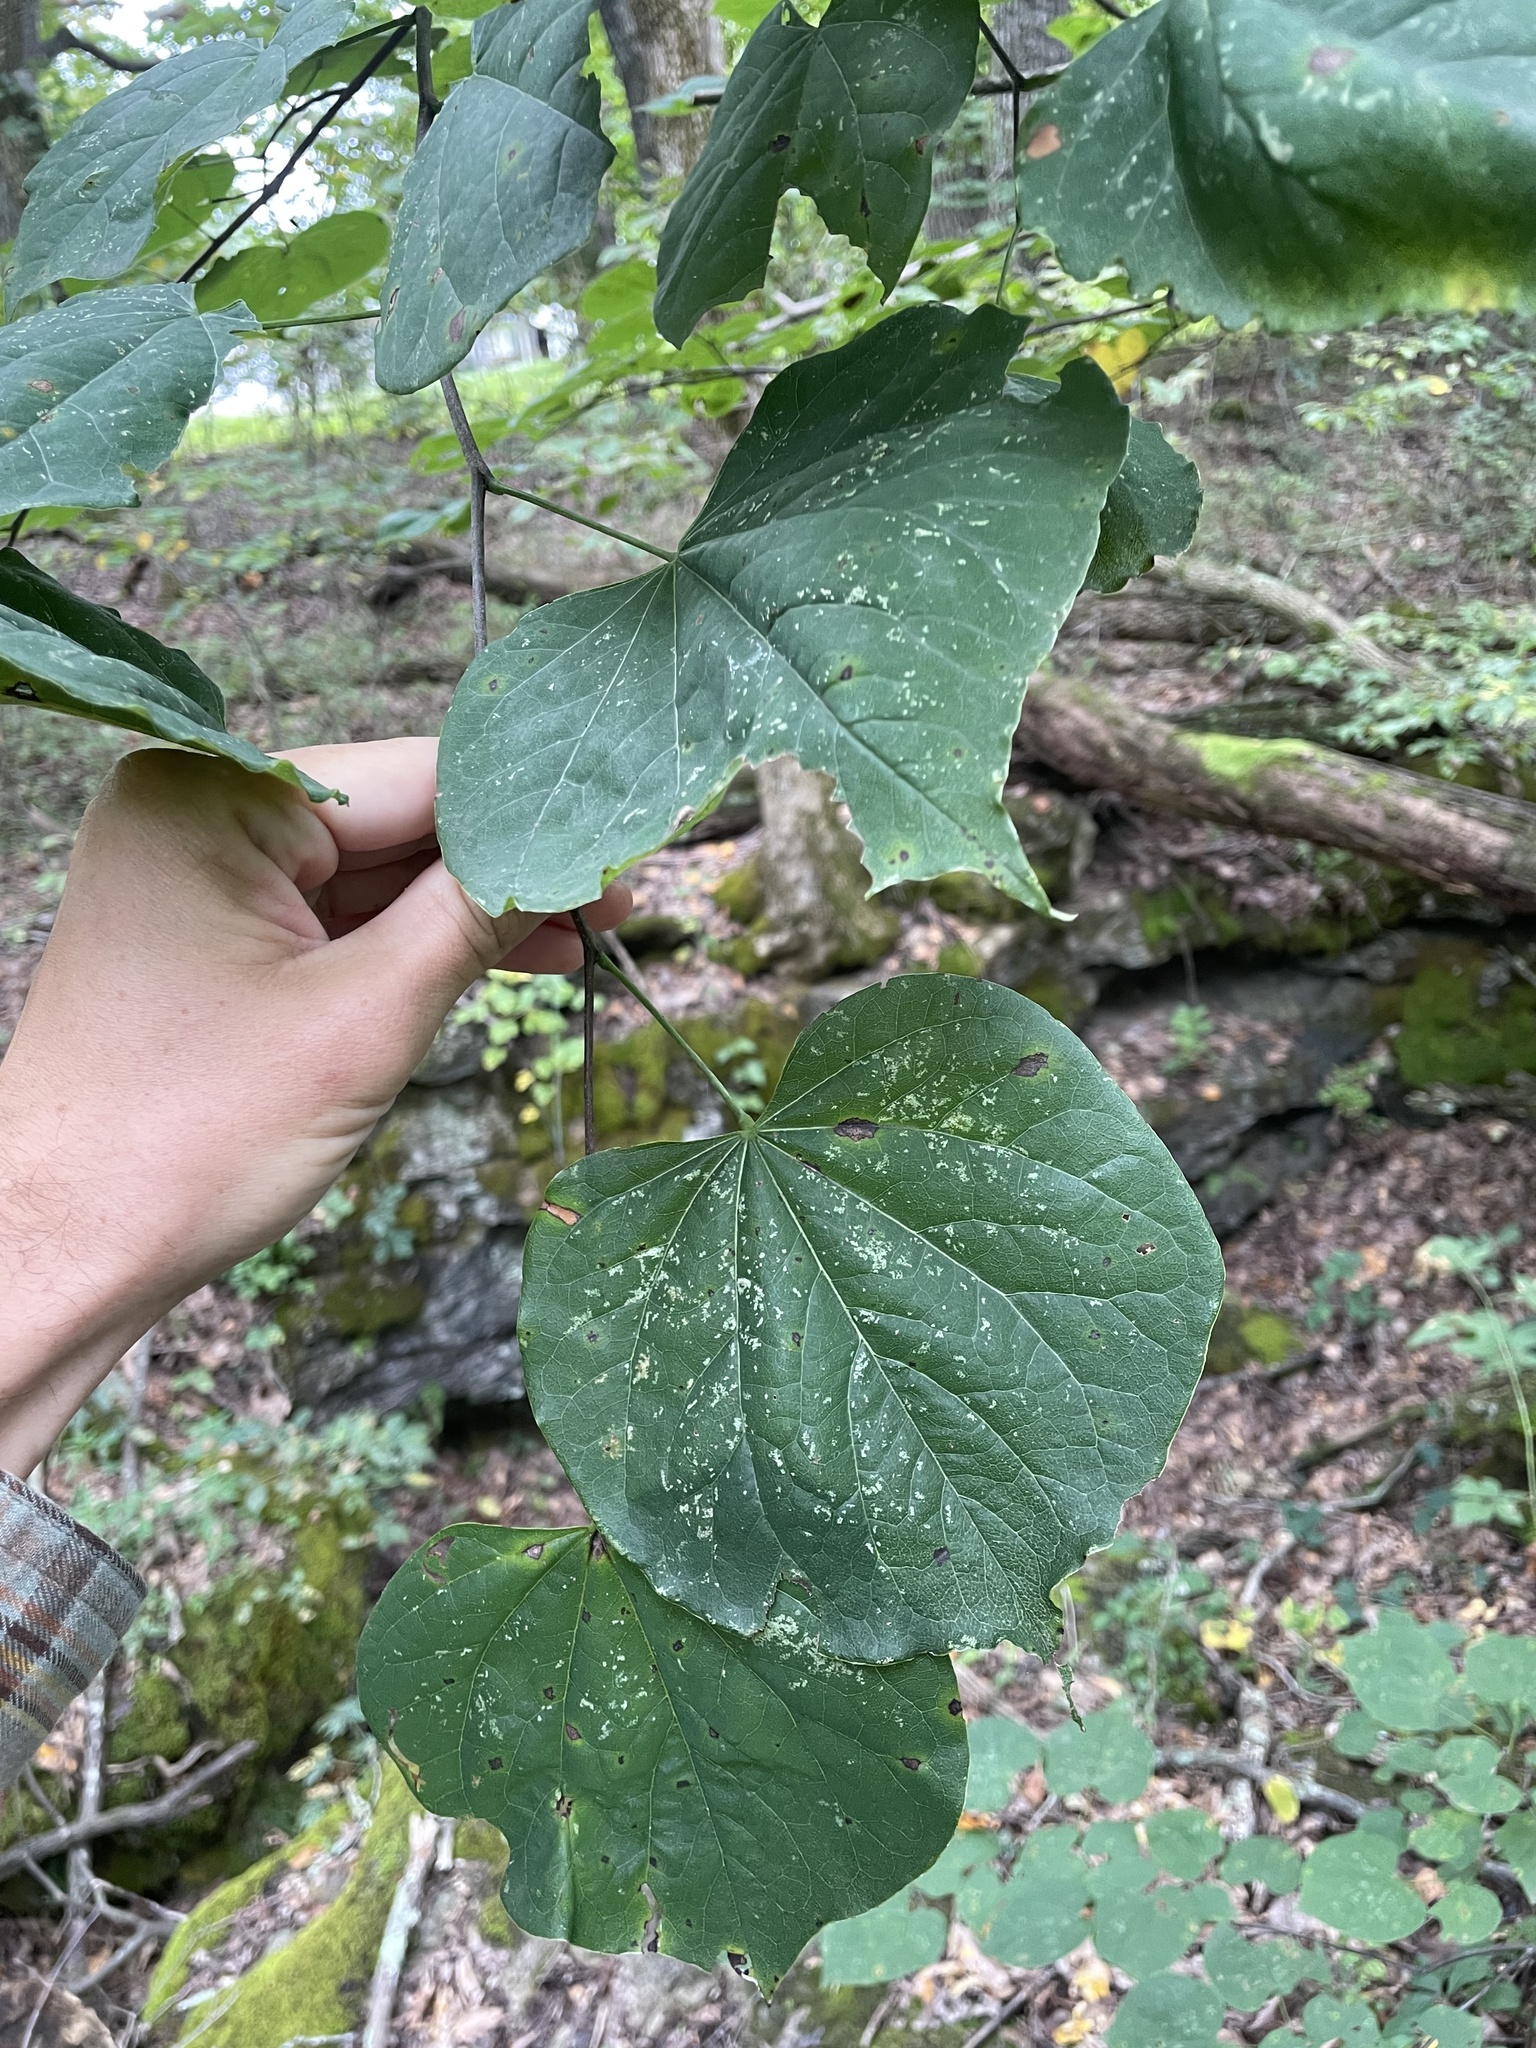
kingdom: Plantae
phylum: Tracheophyta
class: Magnoliopsida
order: Fabales
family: Fabaceae
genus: Cercis
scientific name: Cercis canadensis
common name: Eastern redbud
